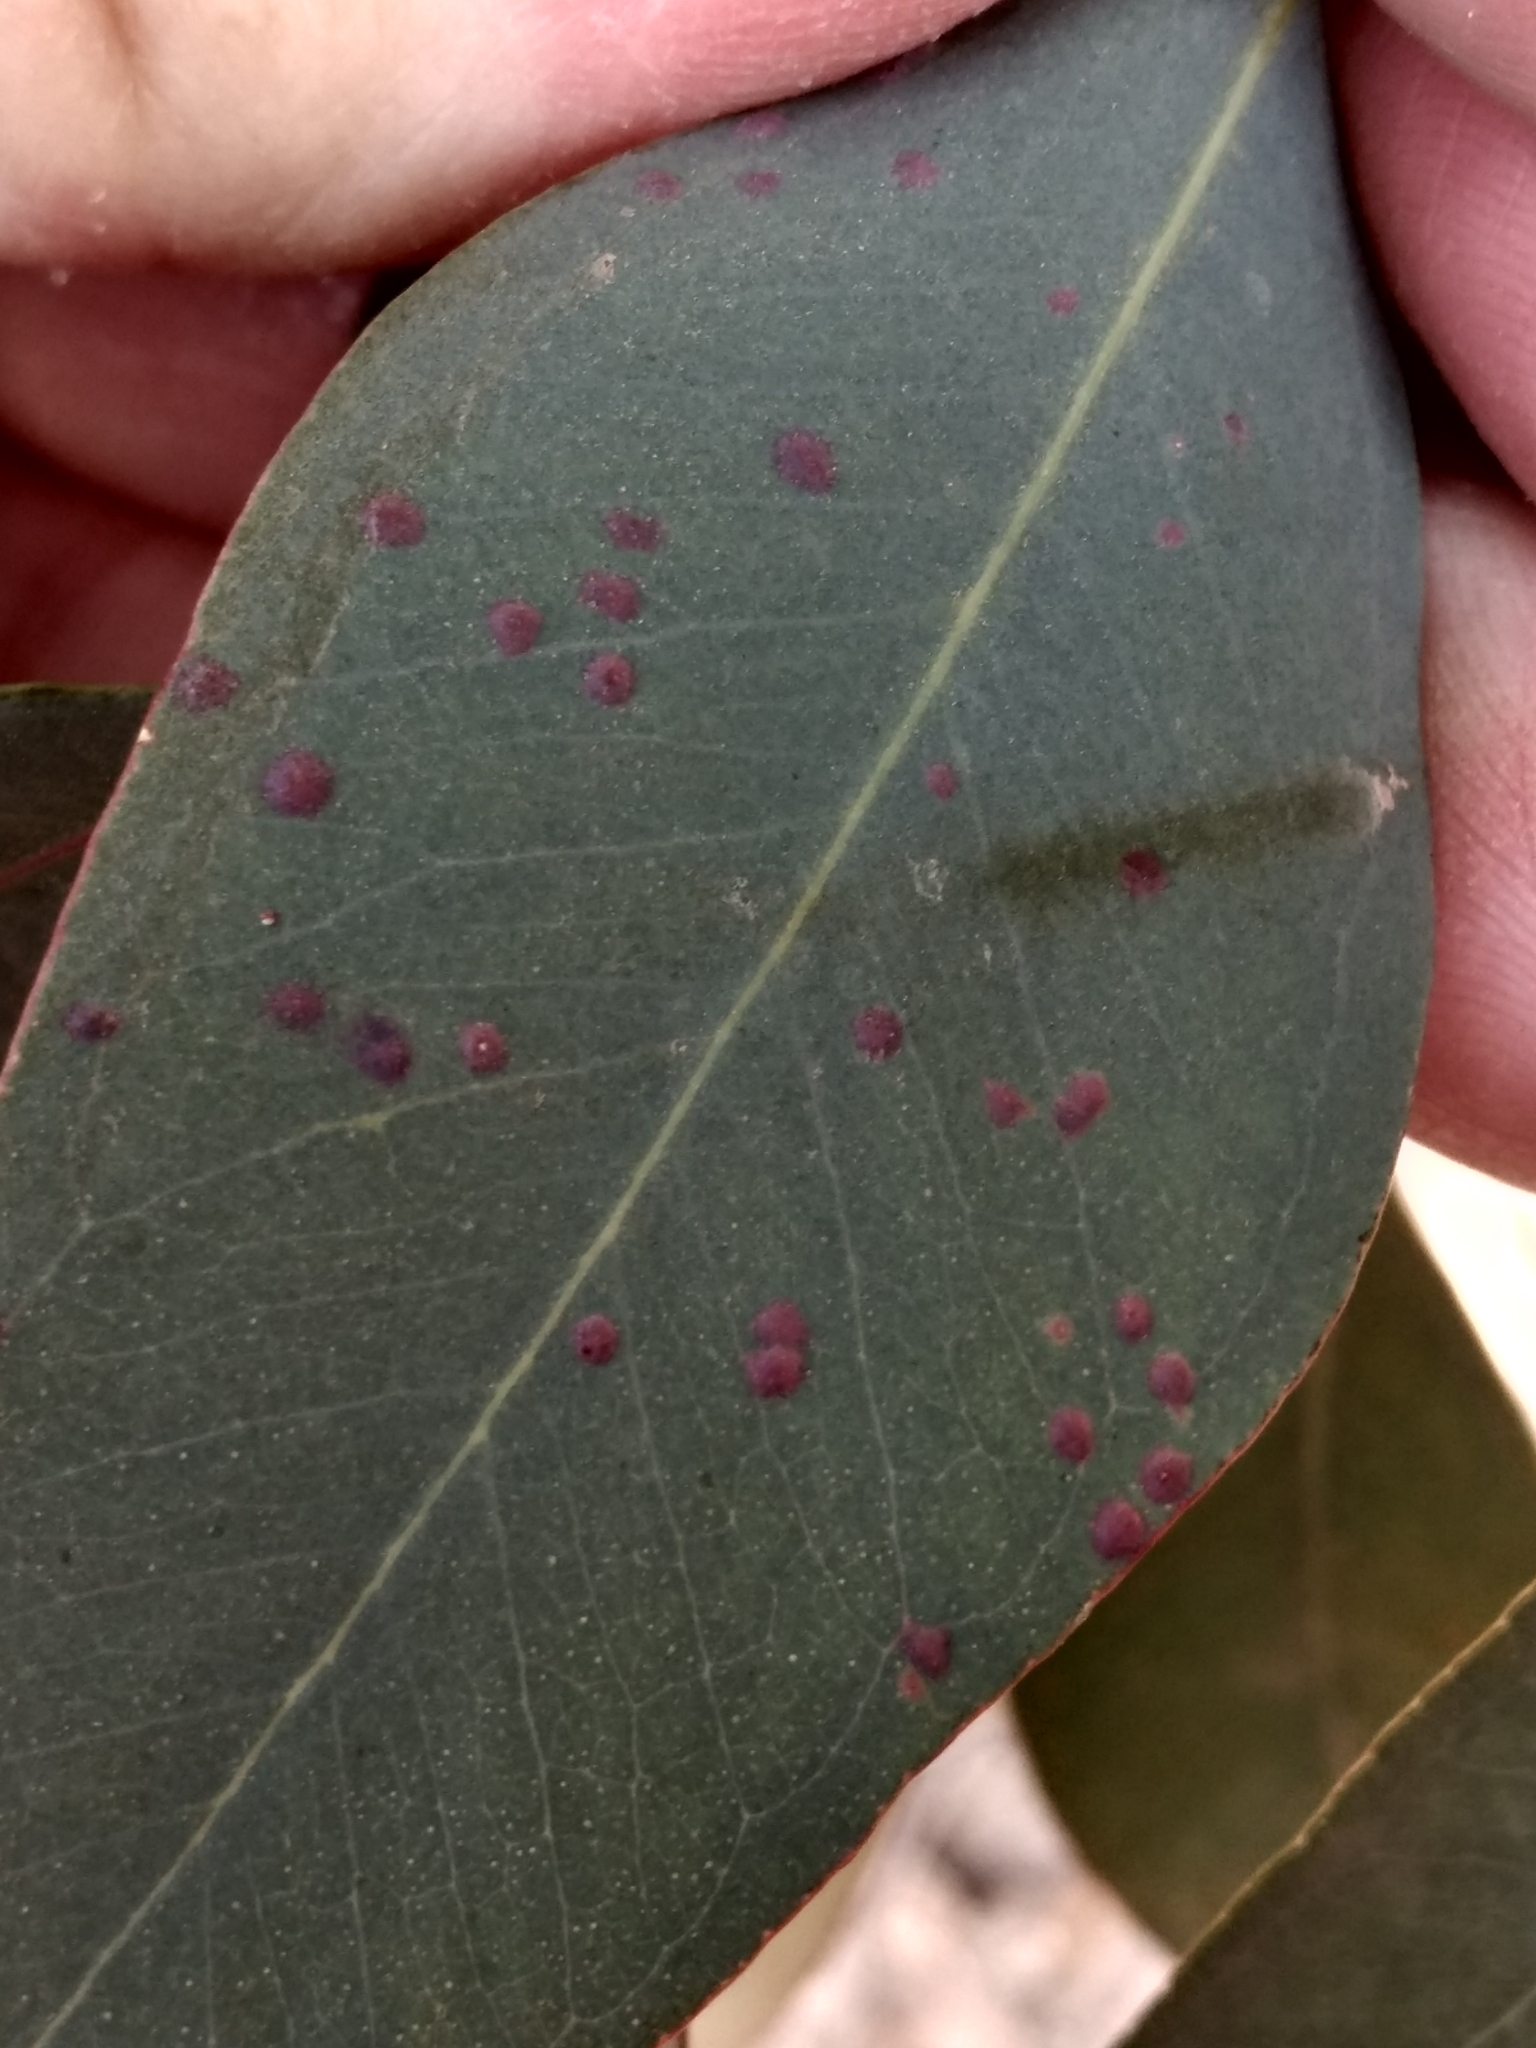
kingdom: Animalia
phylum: Arthropoda
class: Insecta
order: Hymenoptera
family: Eulophidae
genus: Ophelimus
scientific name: Ophelimus maskelli
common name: Gall wasp
